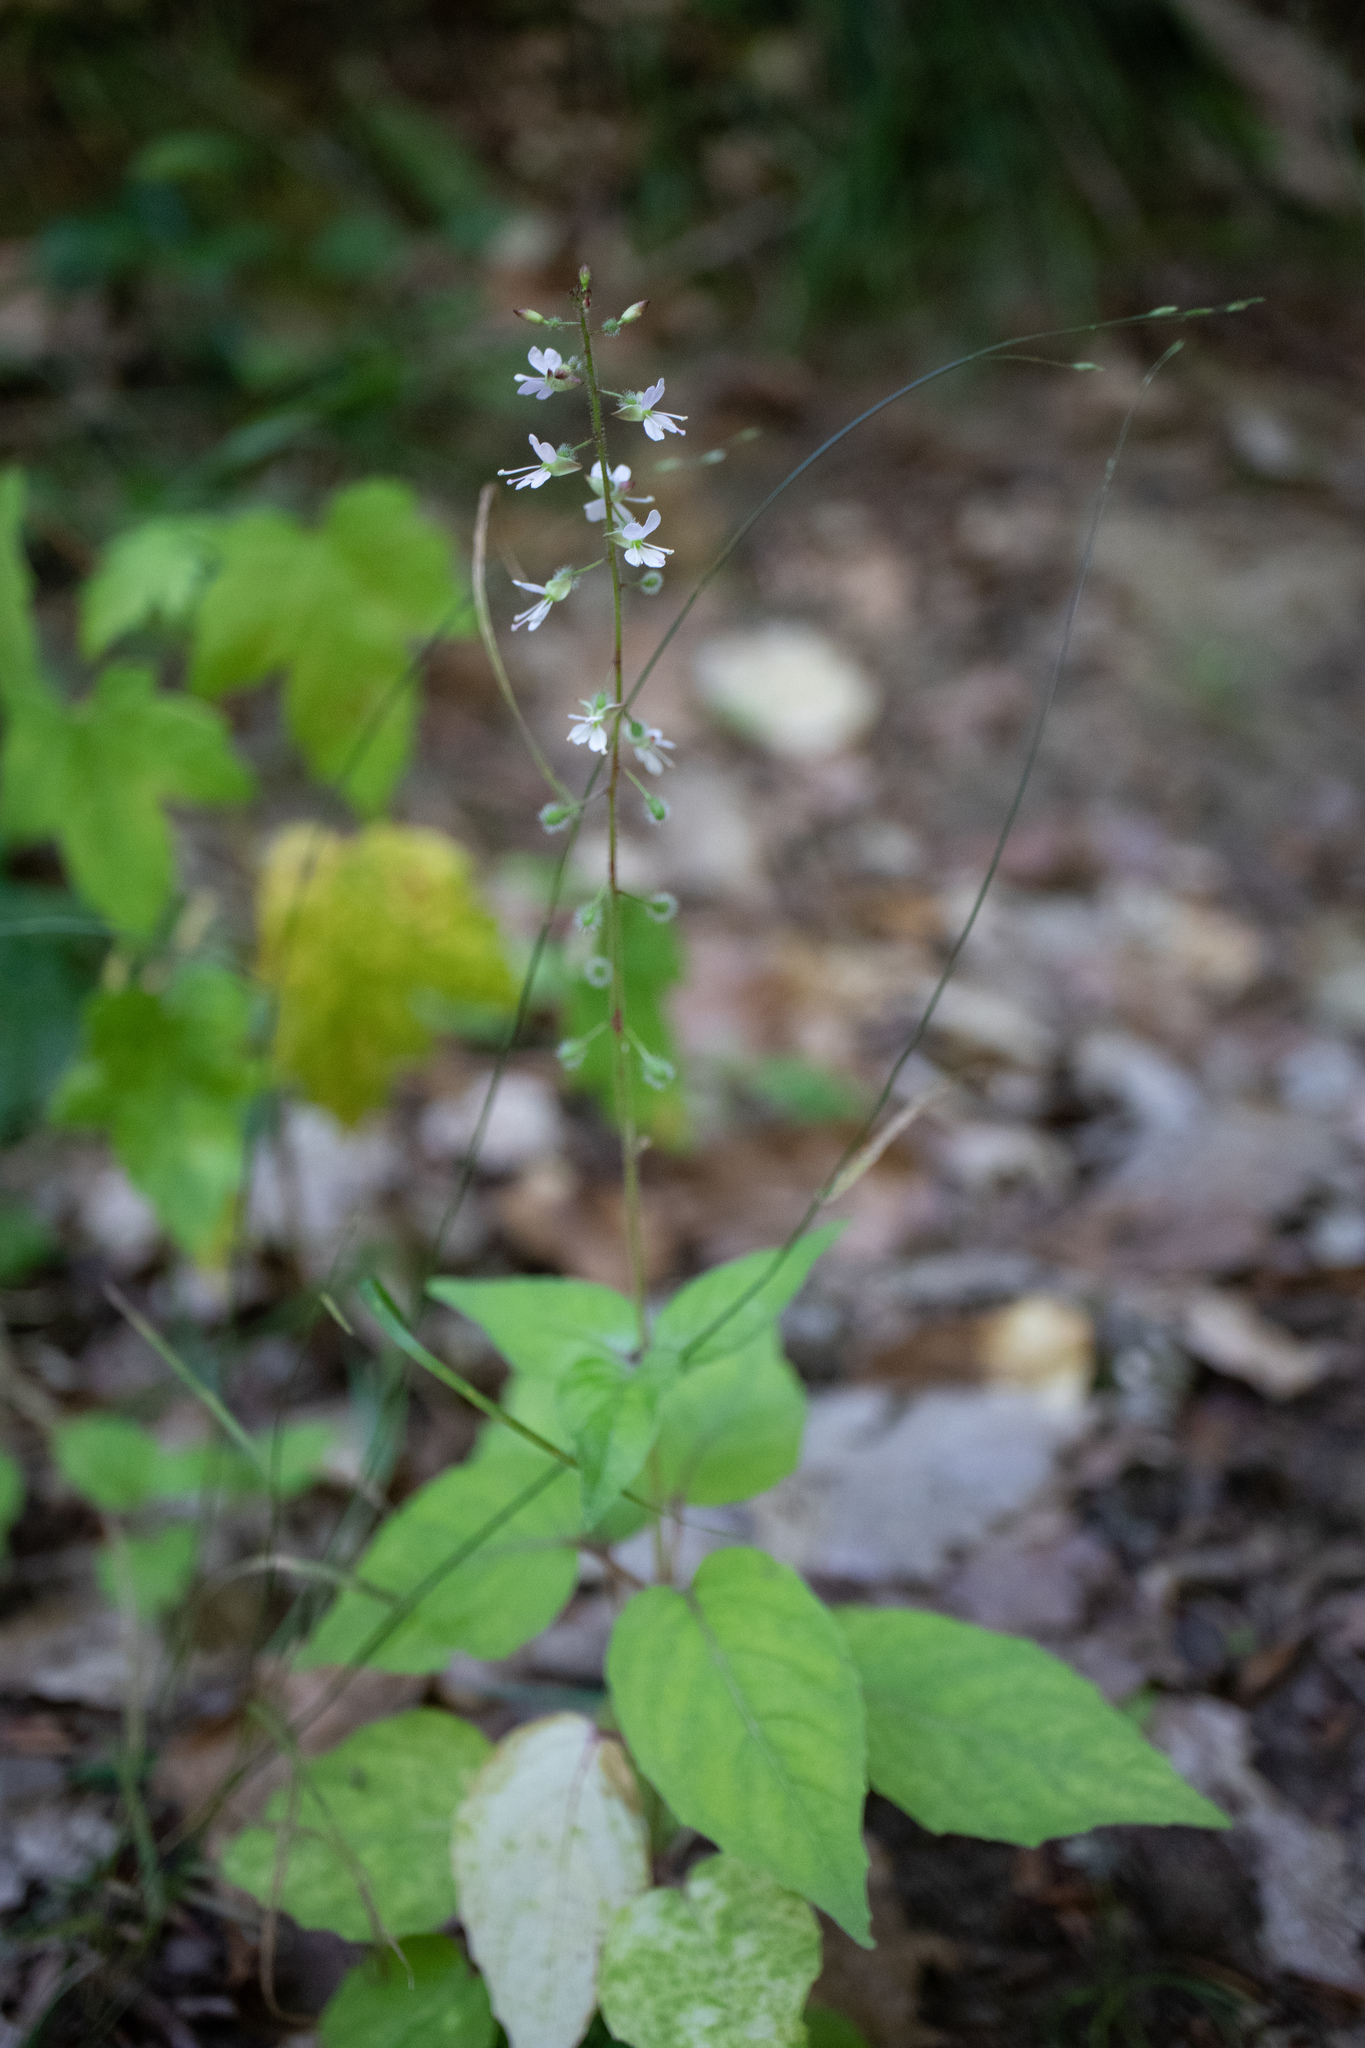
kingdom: Plantae
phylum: Tracheophyta
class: Magnoliopsida
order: Myrtales
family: Onagraceae
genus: Circaea
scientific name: Circaea lutetiana
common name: Enchanter's-nightshade
